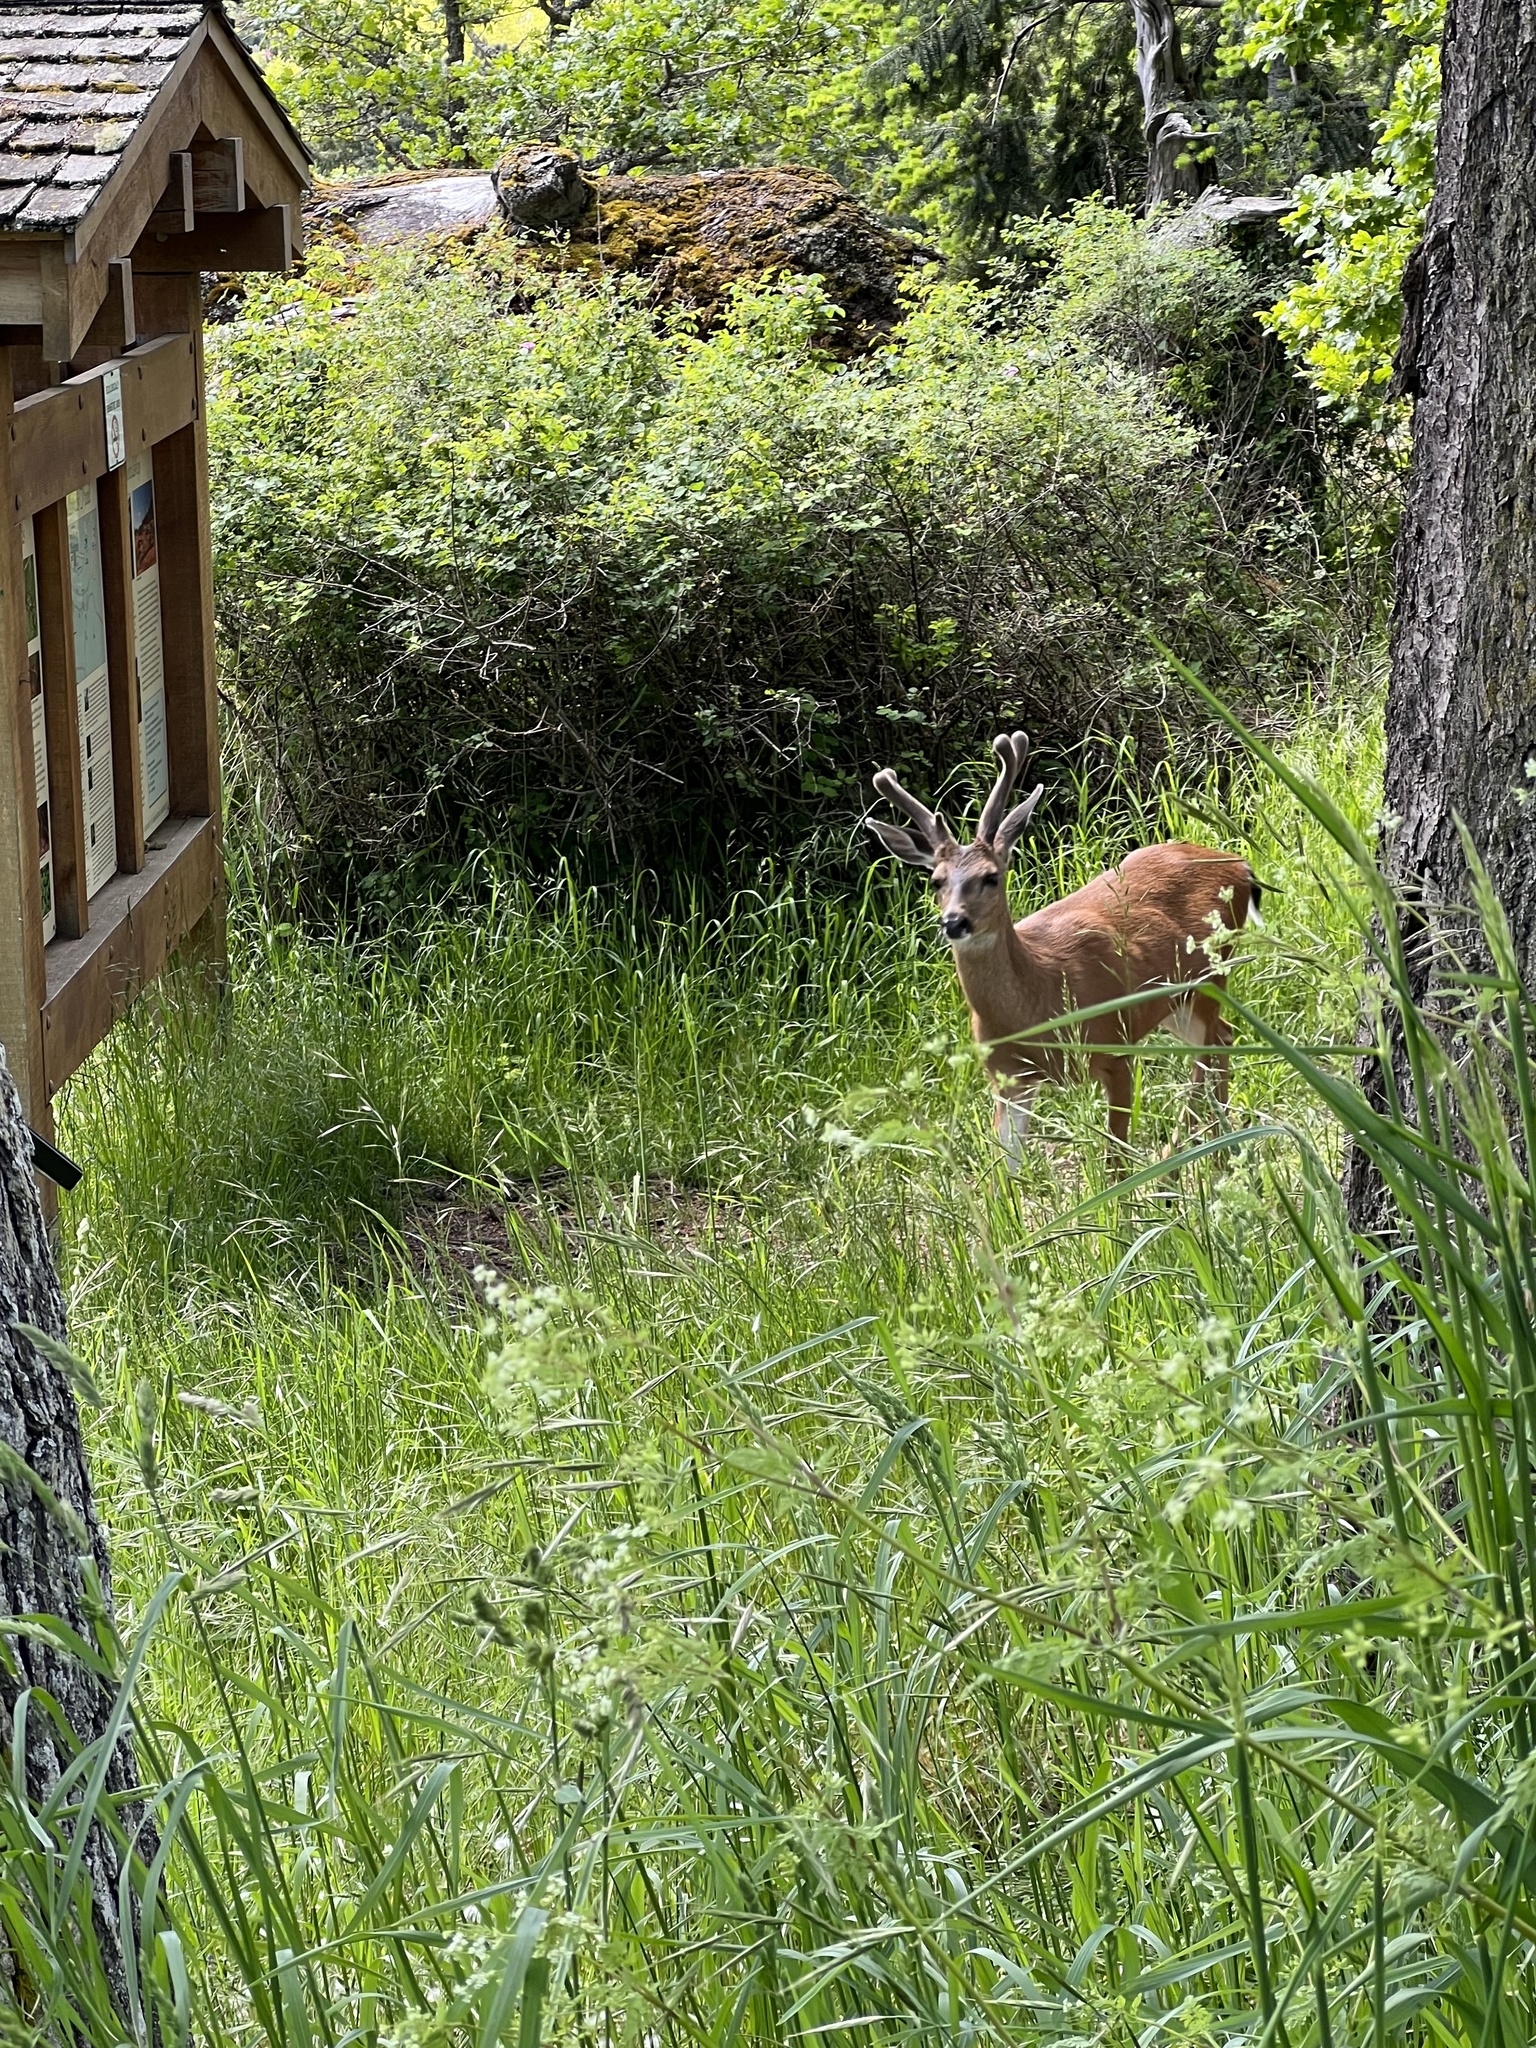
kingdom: Animalia
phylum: Chordata
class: Mammalia
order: Artiodactyla
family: Cervidae
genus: Odocoileus
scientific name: Odocoileus hemionus
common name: Mule deer
